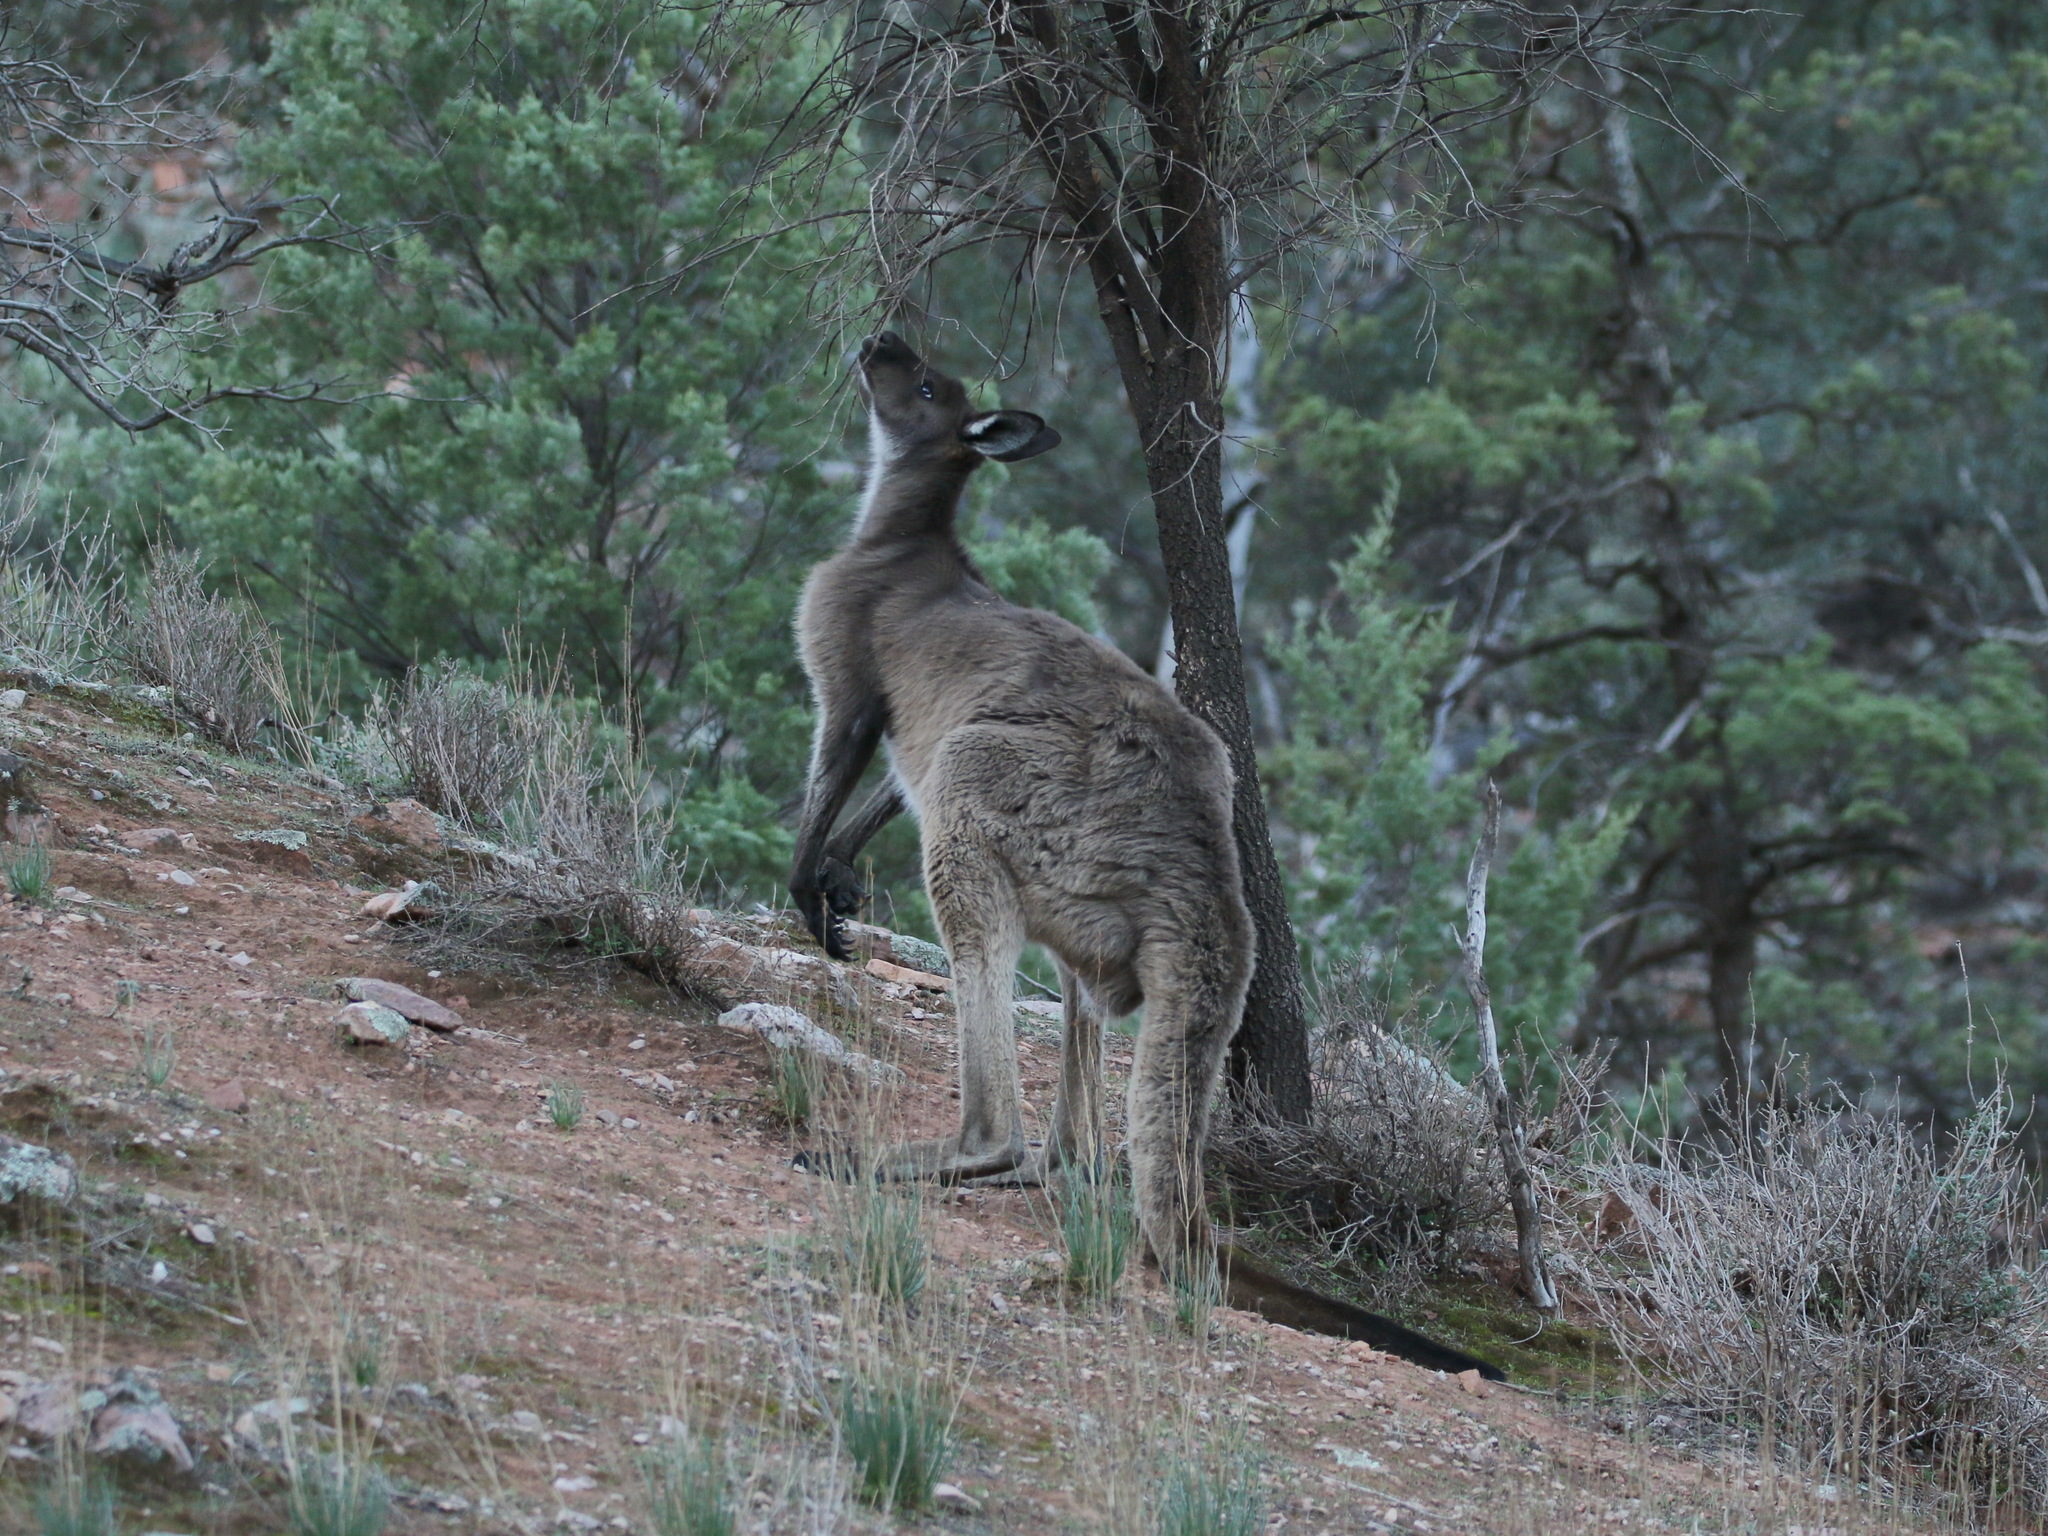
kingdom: Animalia
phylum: Chordata
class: Mammalia
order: Diprotodontia
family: Macropodidae
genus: Macropus
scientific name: Macropus fuliginosus
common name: Western grey kangaroo
